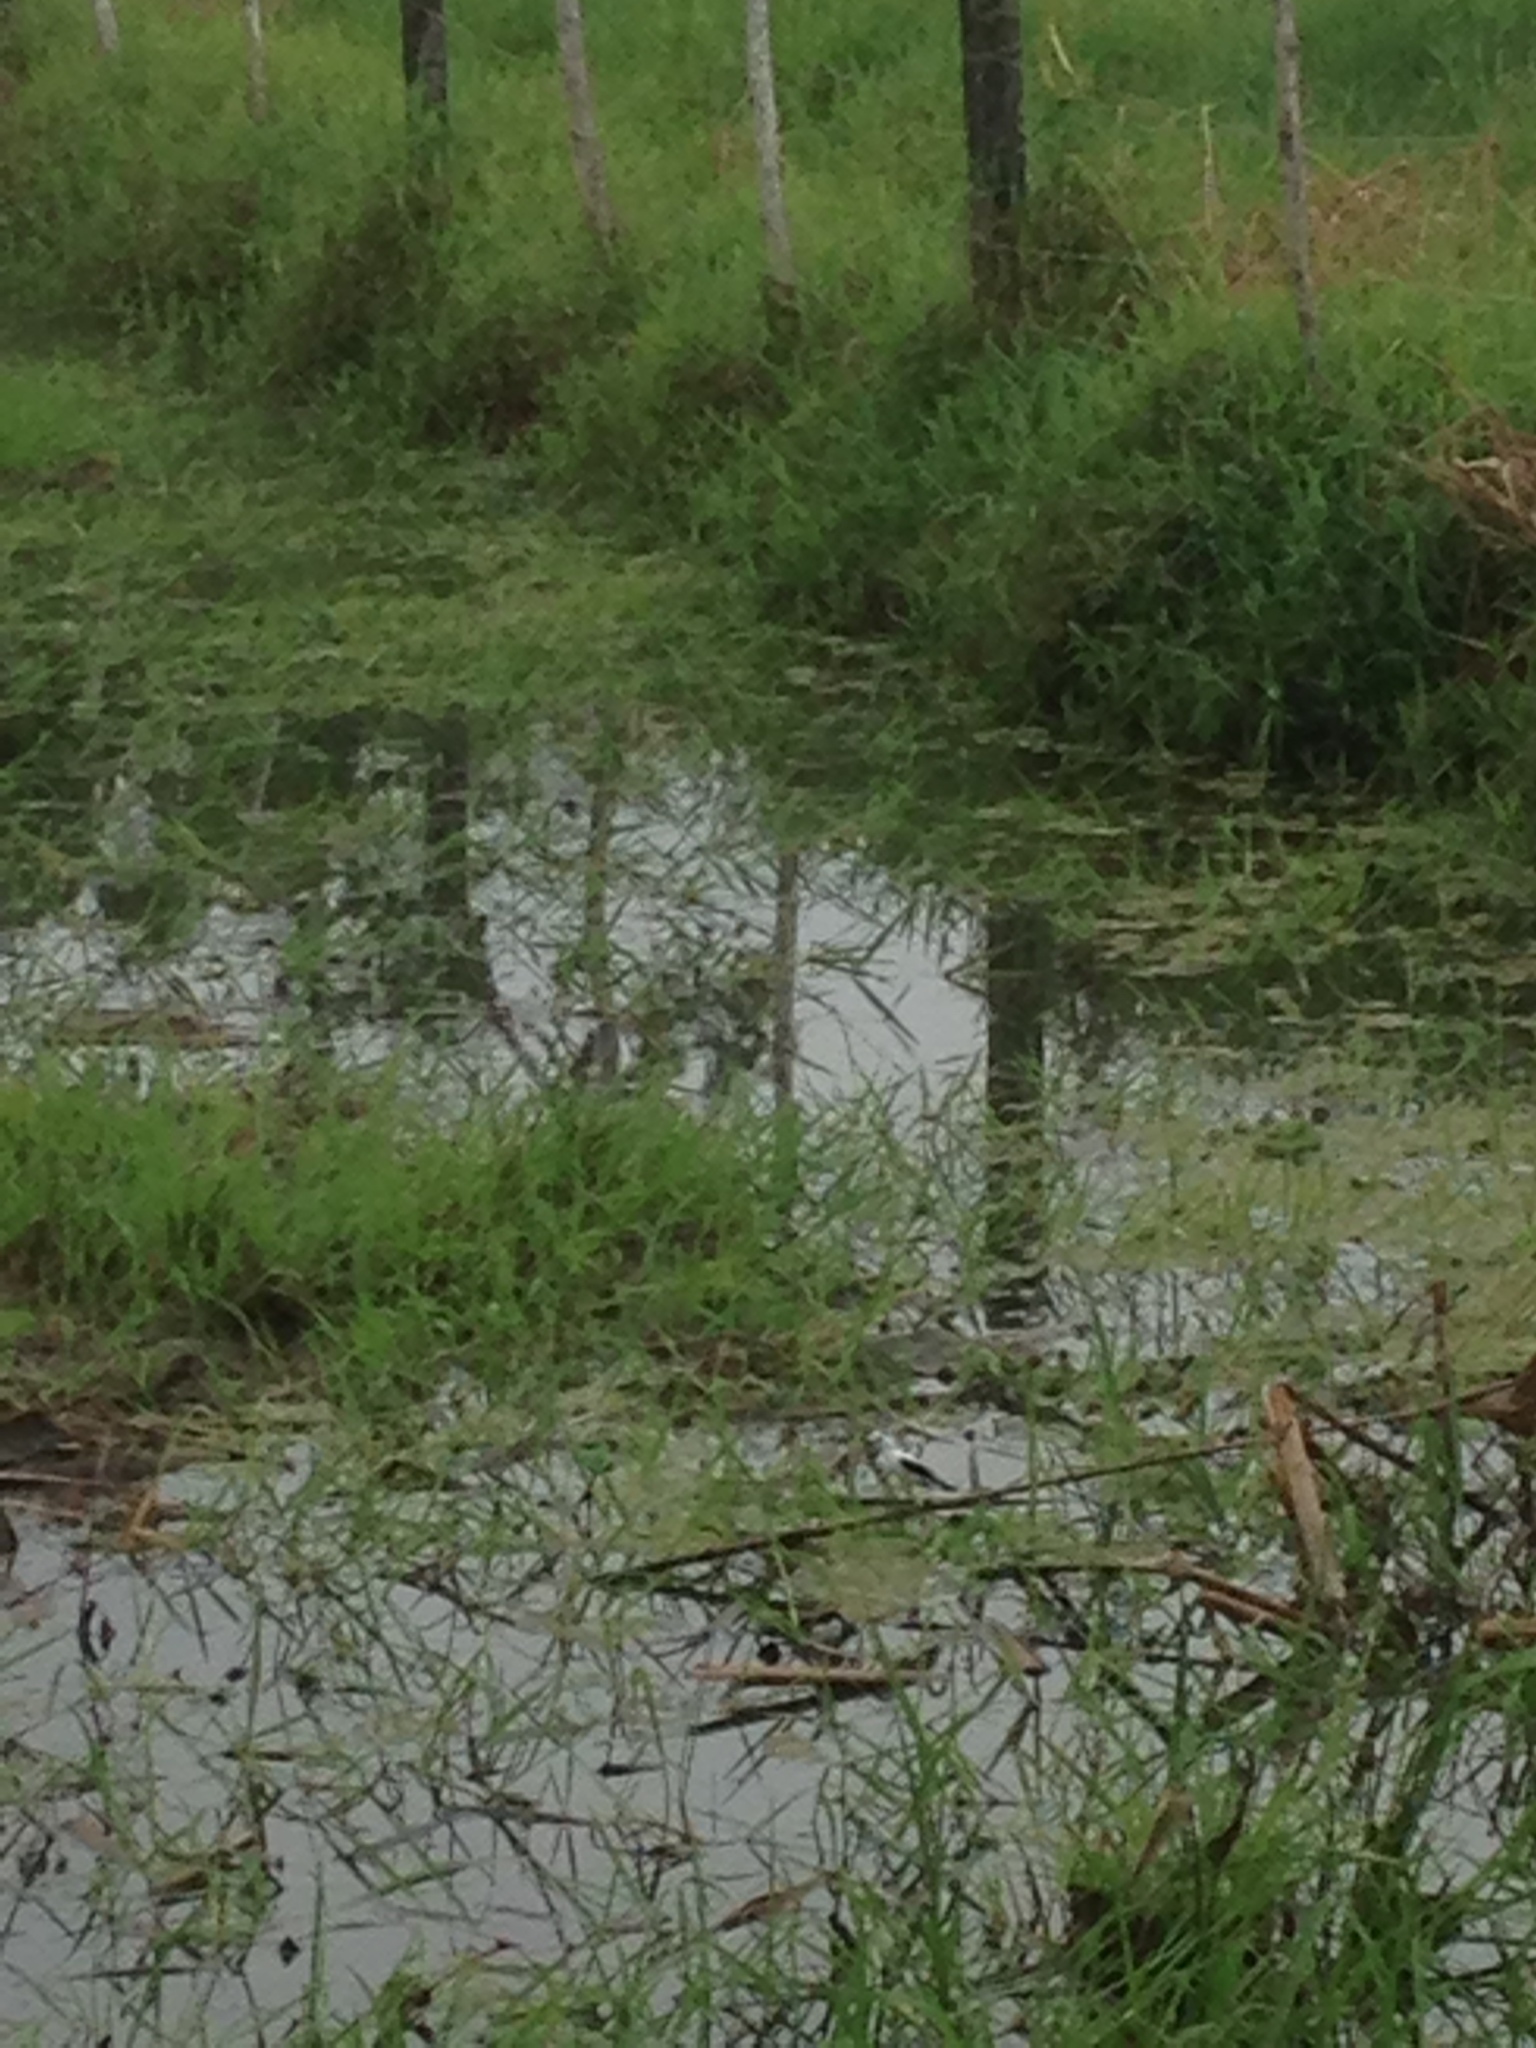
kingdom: Animalia
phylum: Chordata
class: Aves
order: Passeriformes
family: Tyrannidae
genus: Fluvicola
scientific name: Fluvicola pica
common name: Pied water-tyrant
